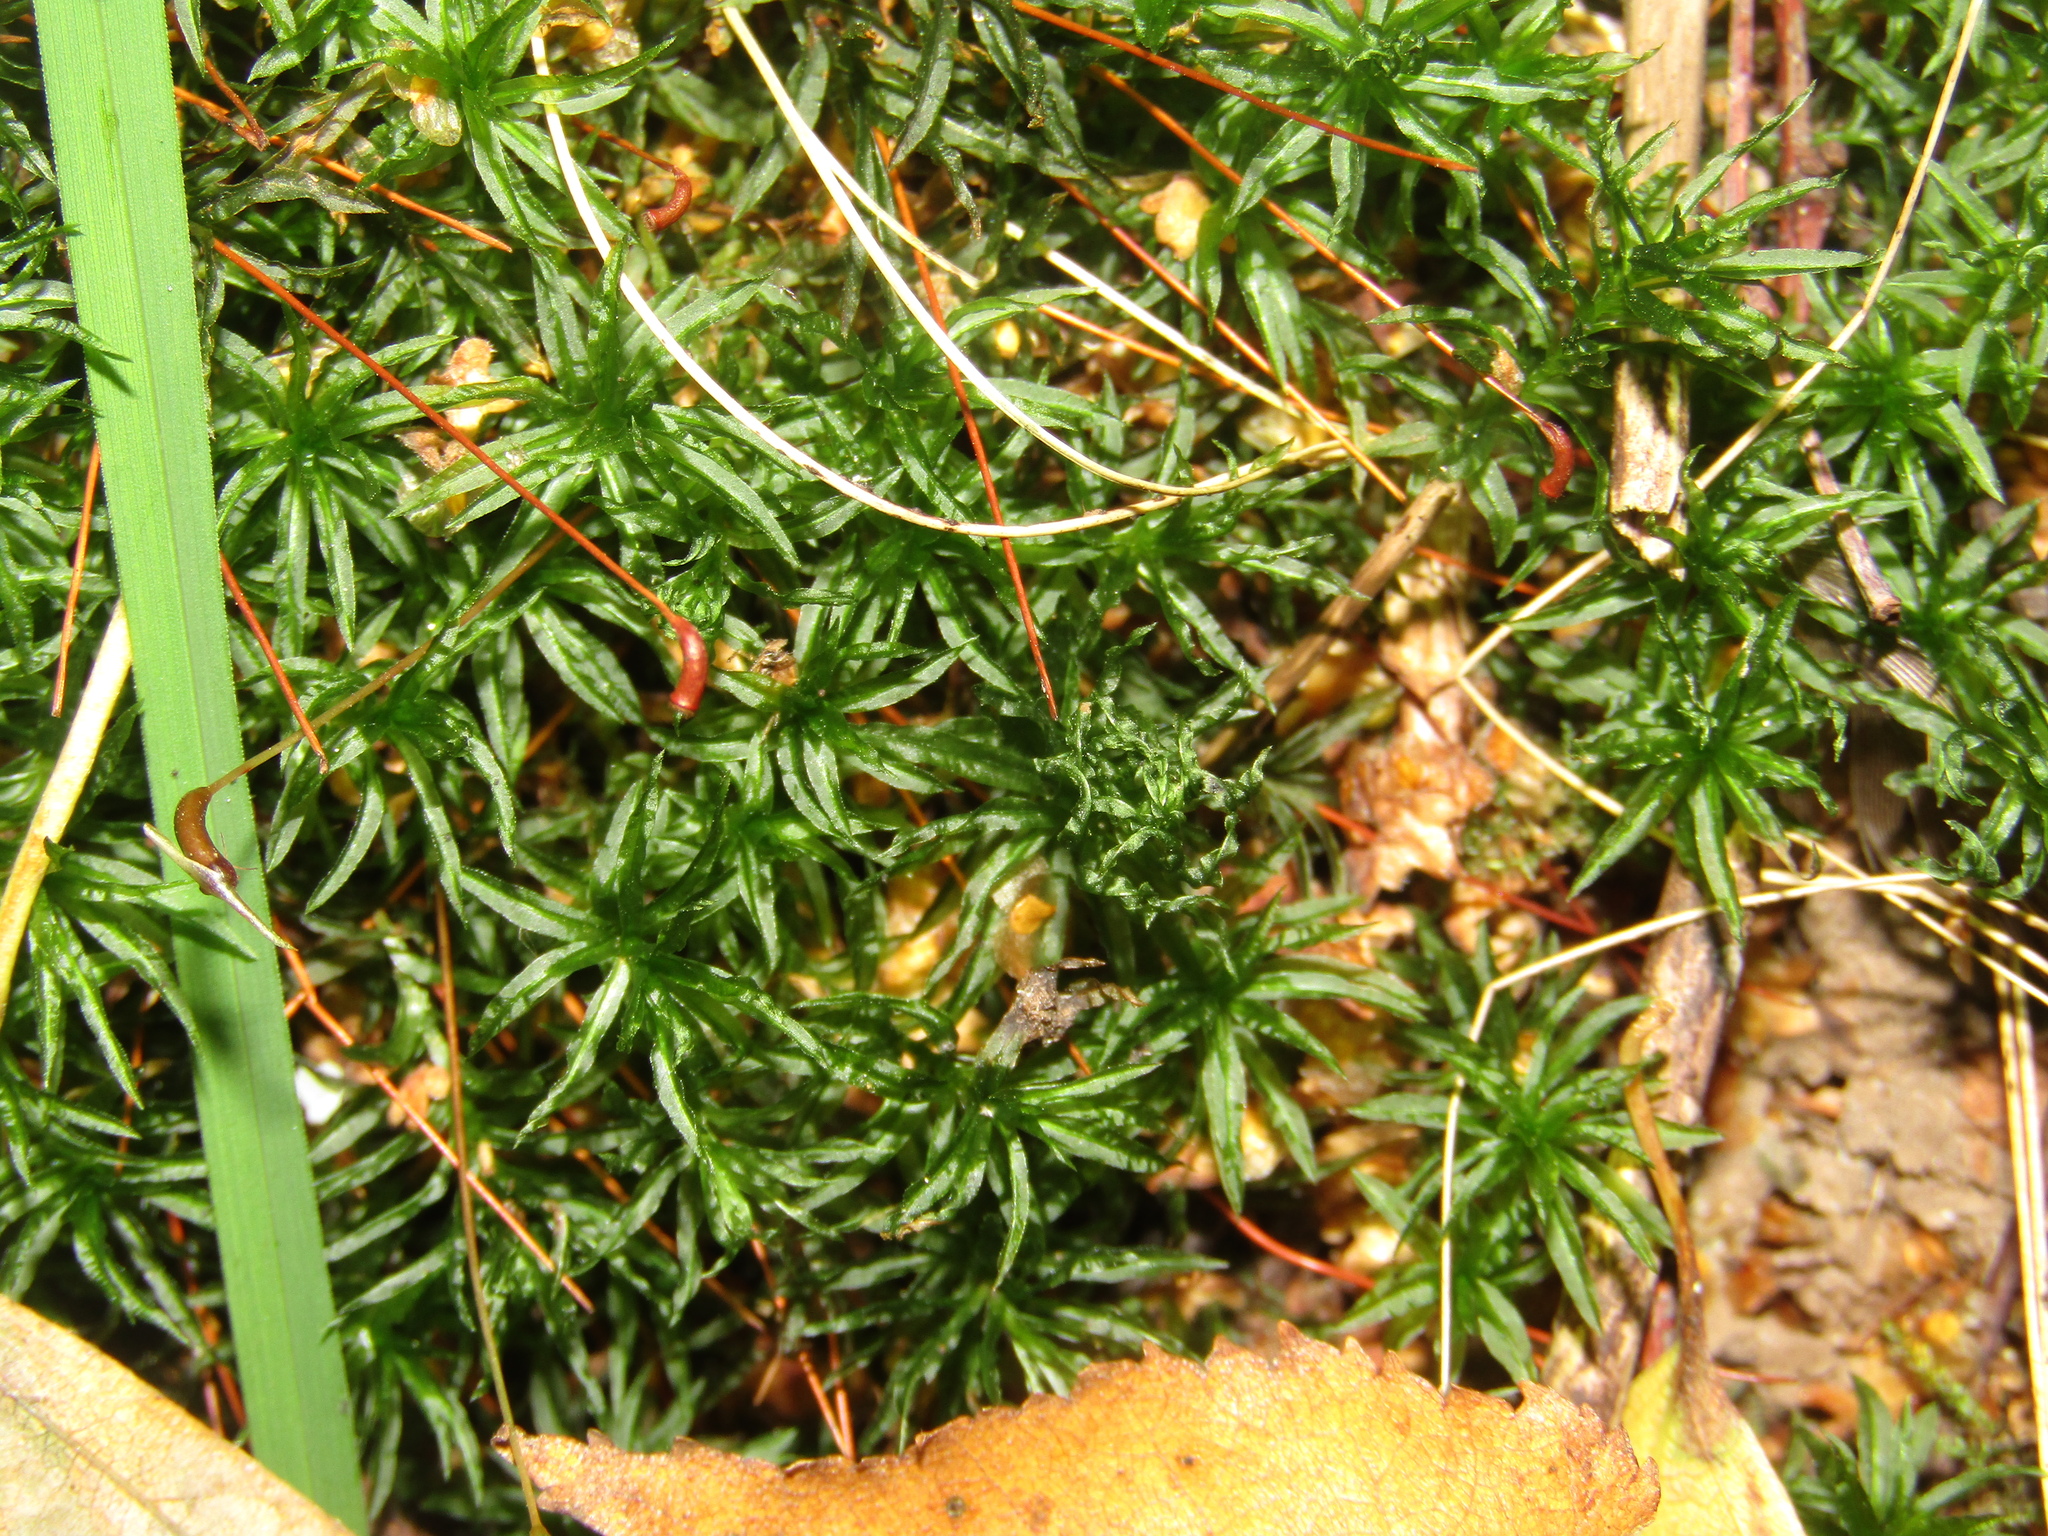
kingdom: Plantae
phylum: Bryophyta
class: Polytrichopsida
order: Polytrichales
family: Polytrichaceae
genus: Atrichum
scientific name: Atrichum undulatum
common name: Common smoothcap
